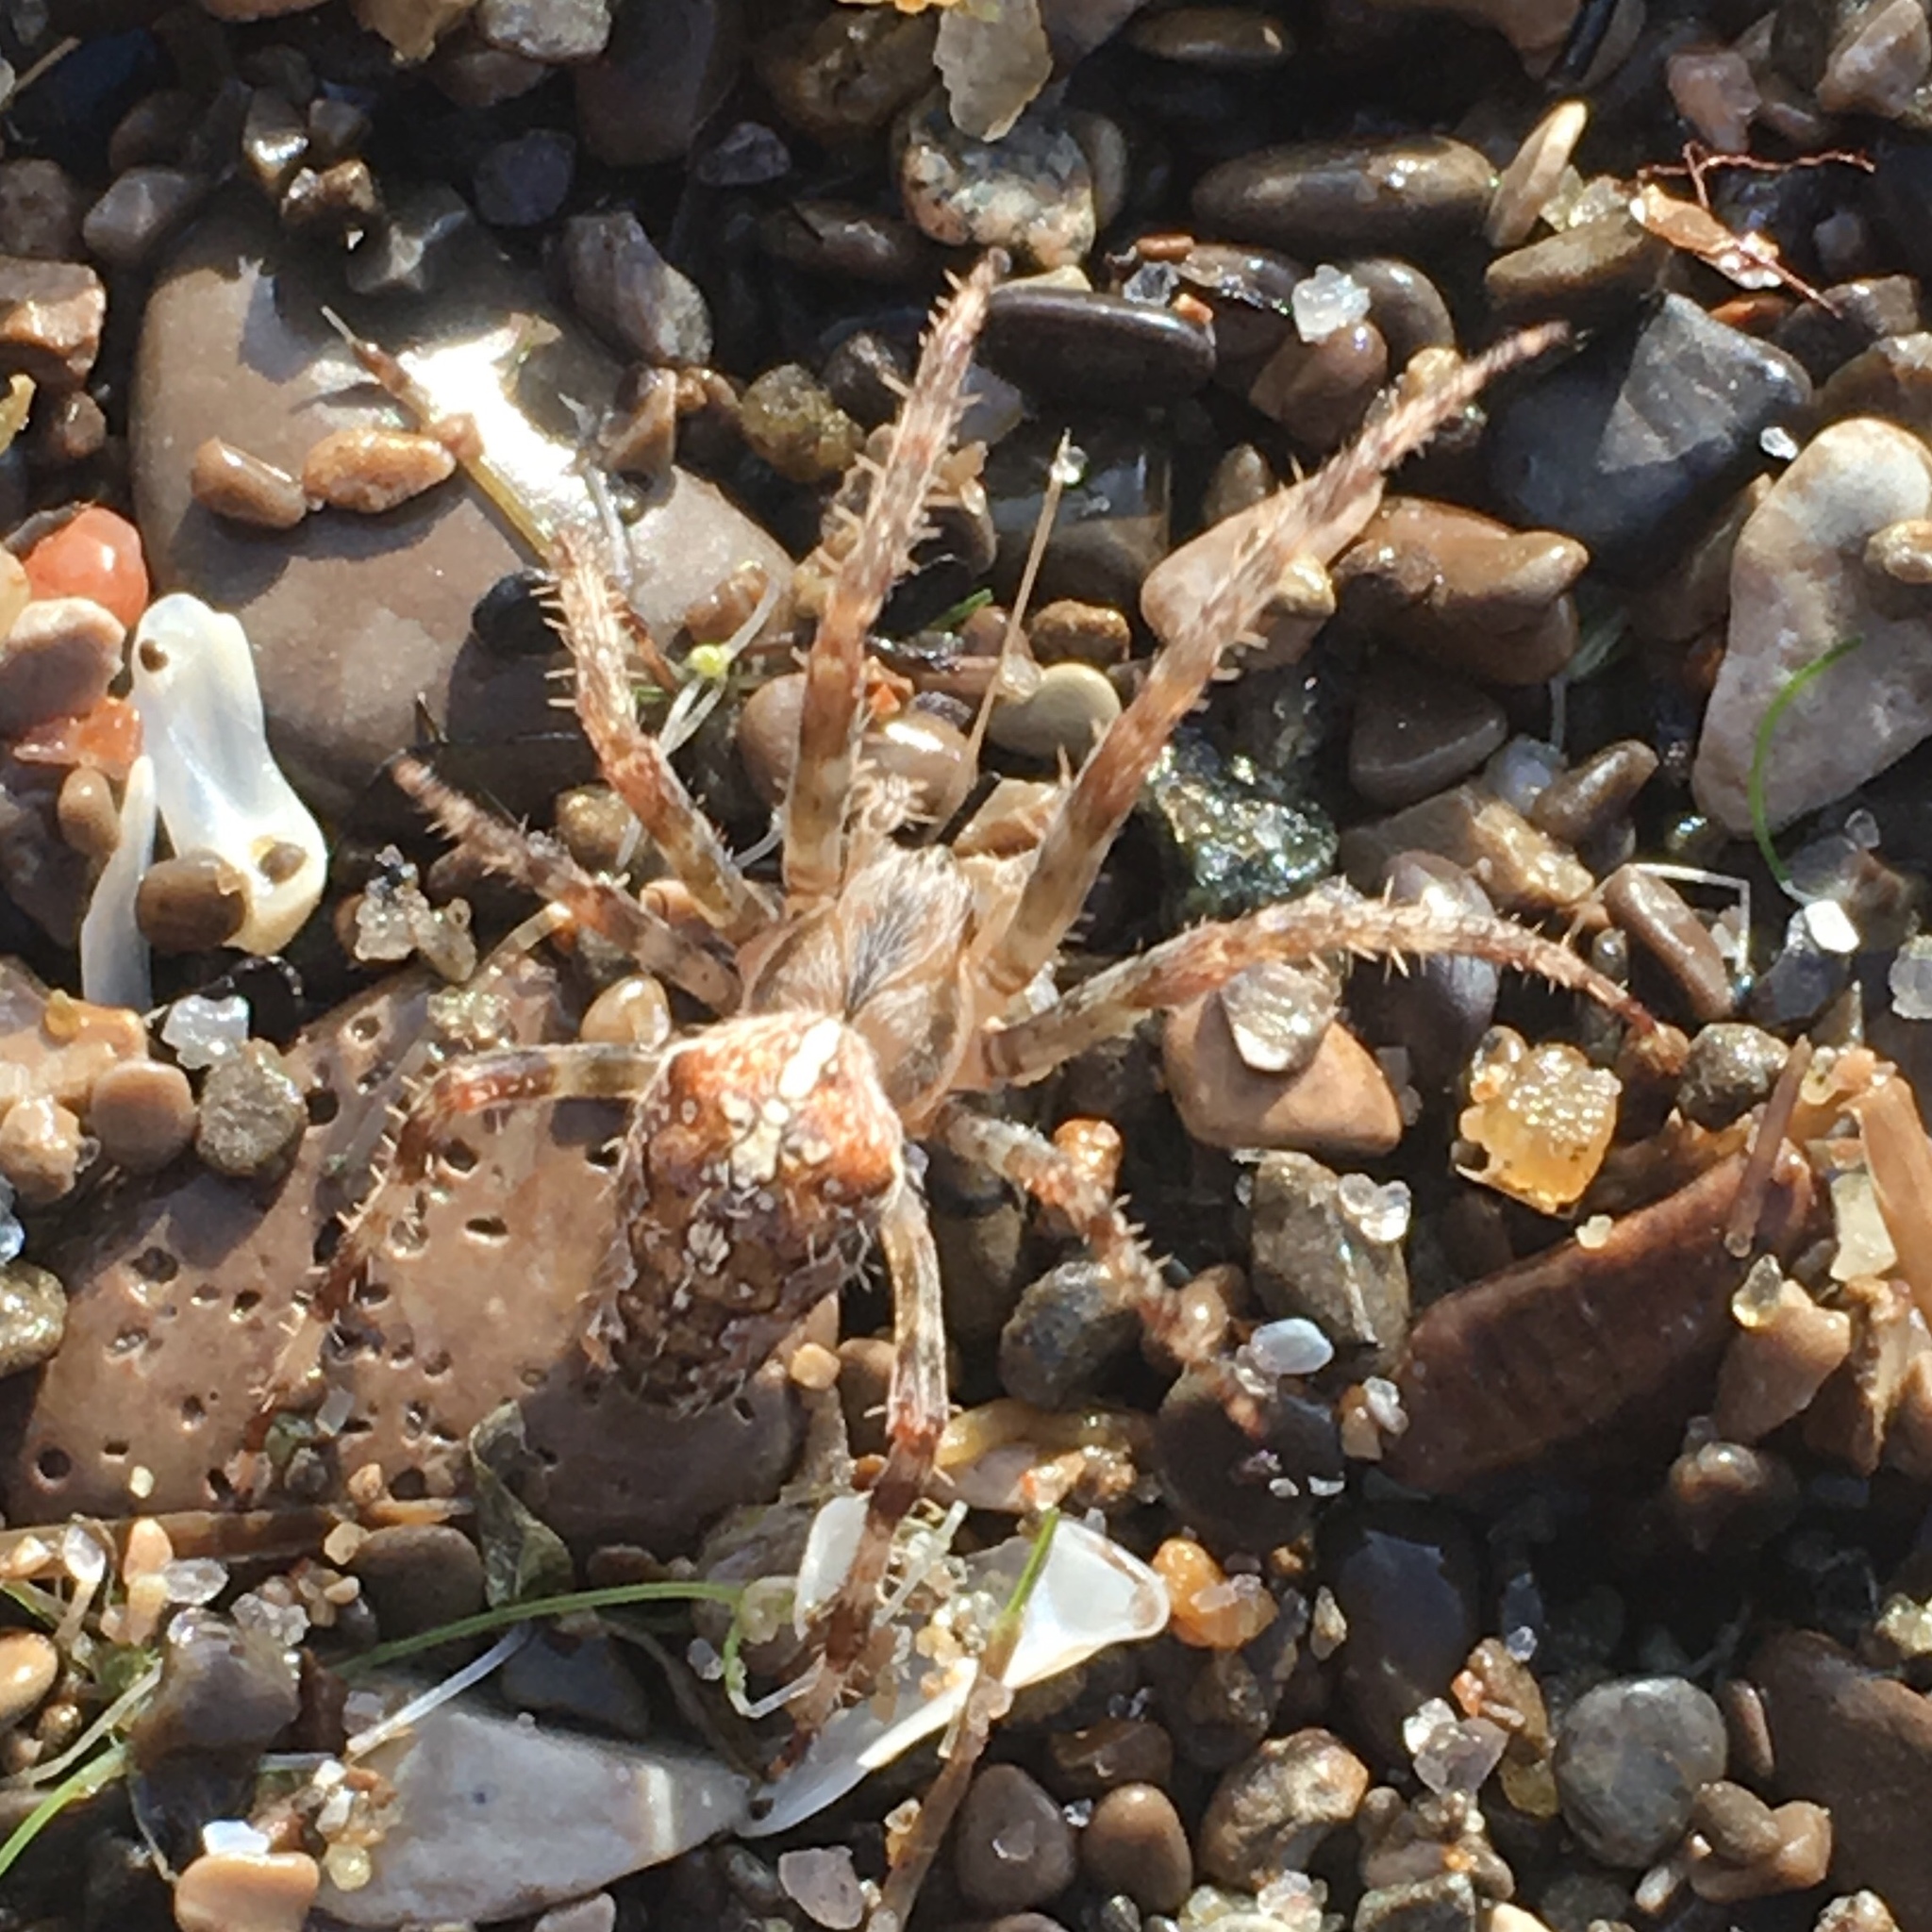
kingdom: Animalia
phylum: Arthropoda
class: Arachnida
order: Araneae
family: Araneidae
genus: Araneus
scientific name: Araneus diadematus
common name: Cross orbweaver
